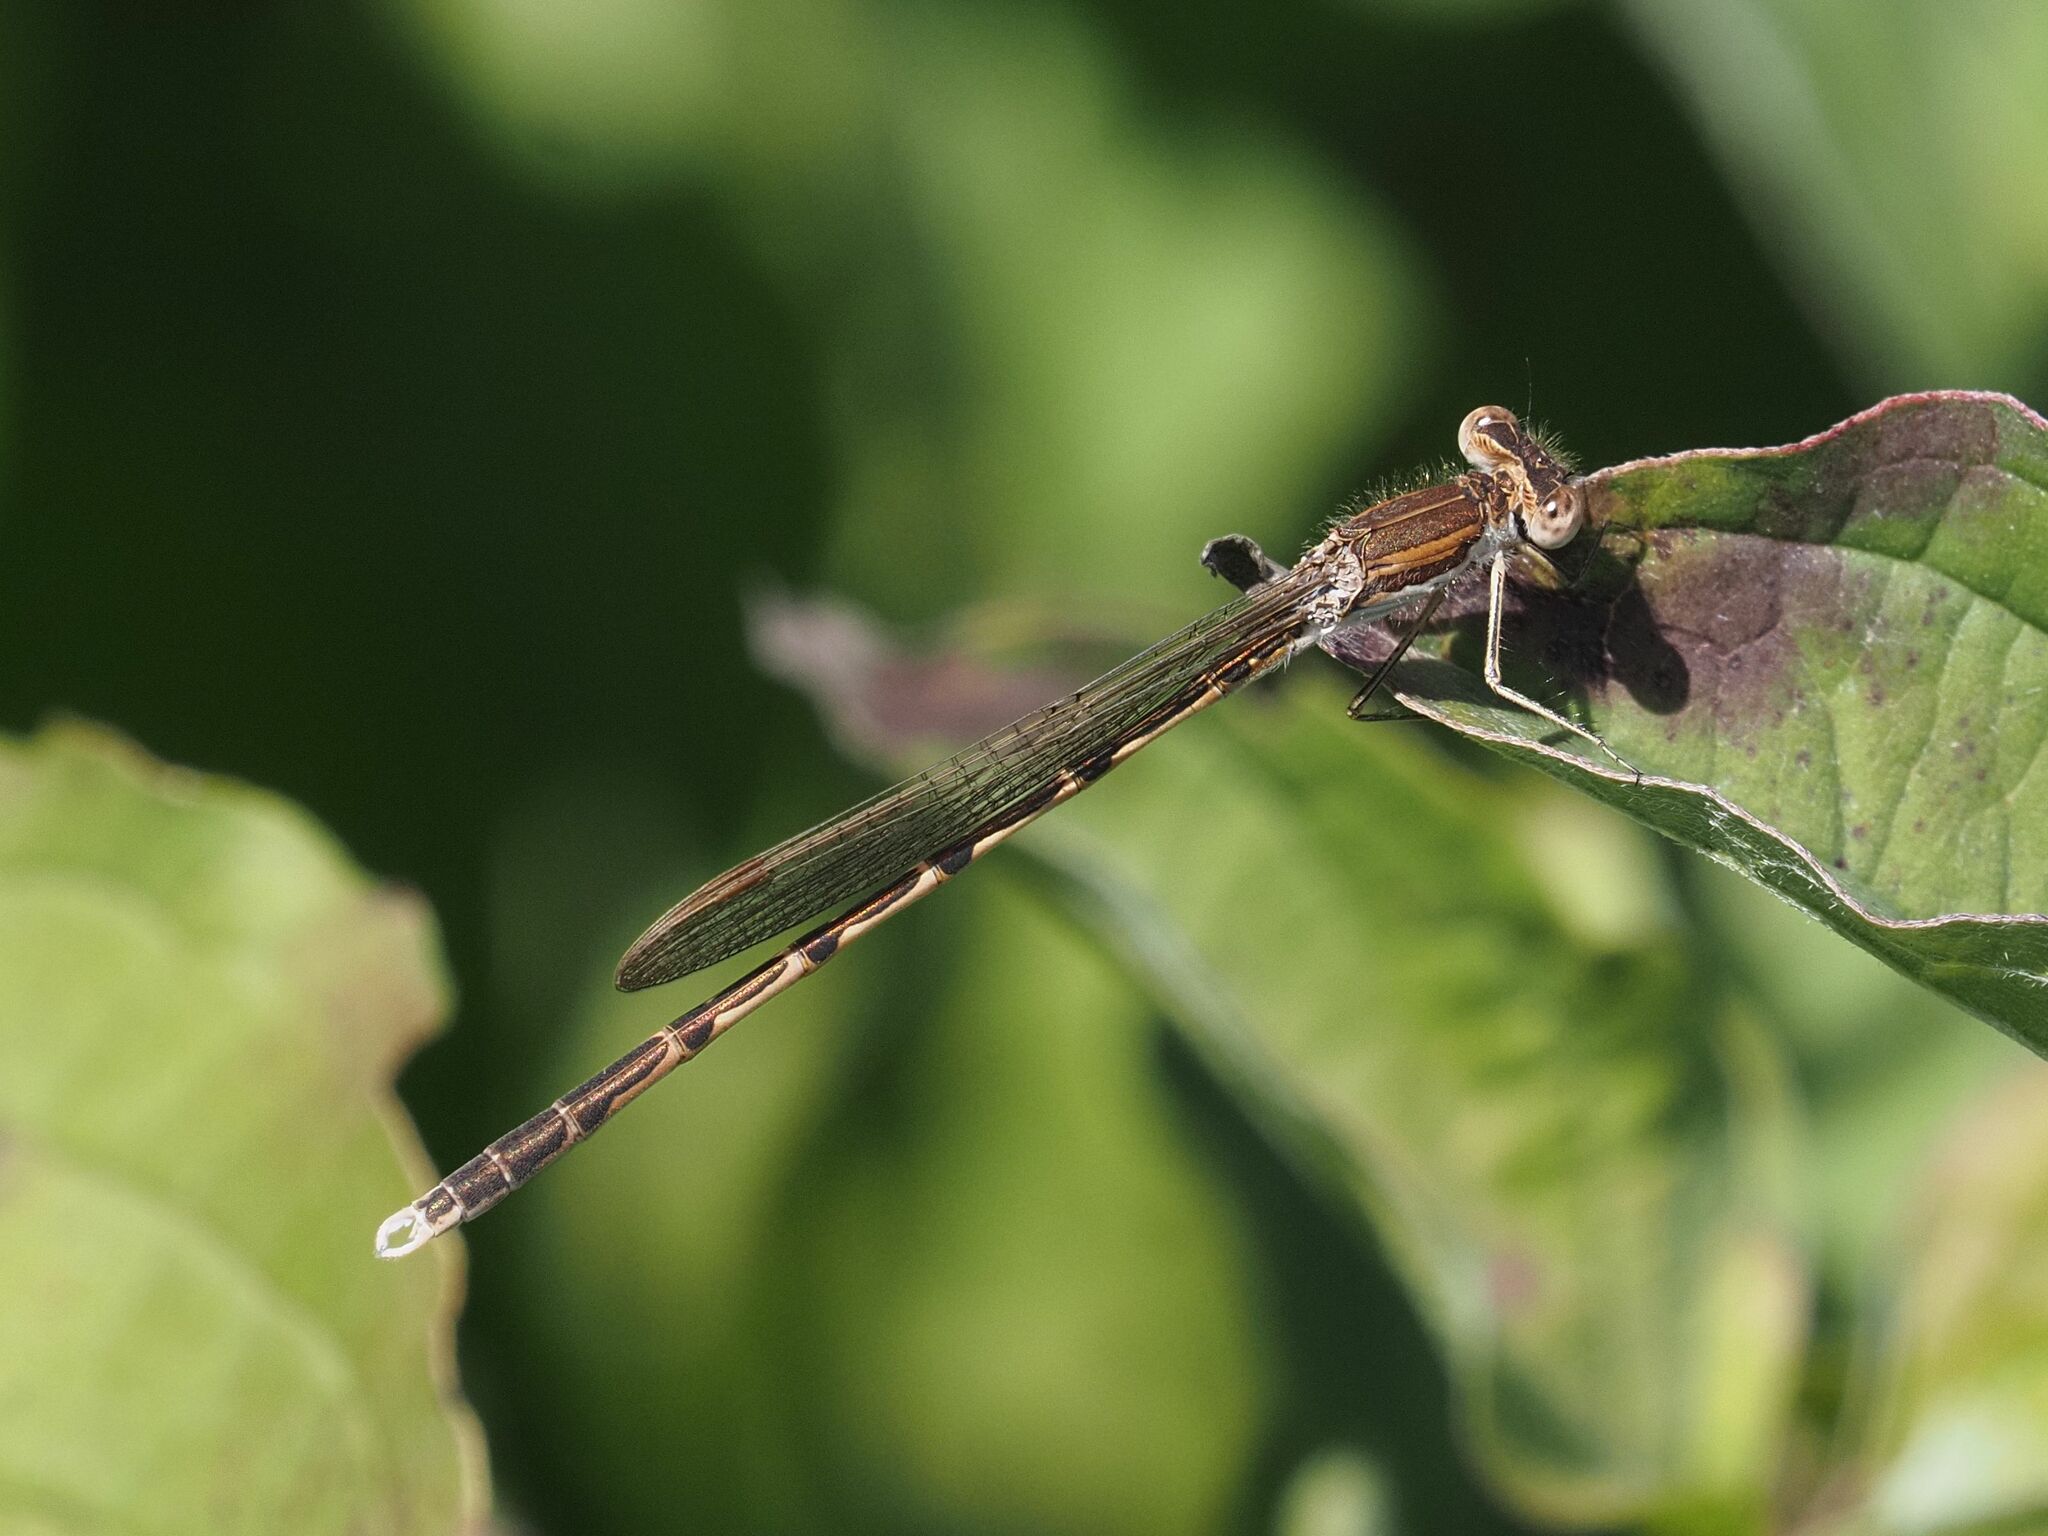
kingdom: Animalia
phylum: Arthropoda
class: Insecta
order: Odonata
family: Lestidae
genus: Sympecma
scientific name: Sympecma fusca
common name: Common winter damsel
